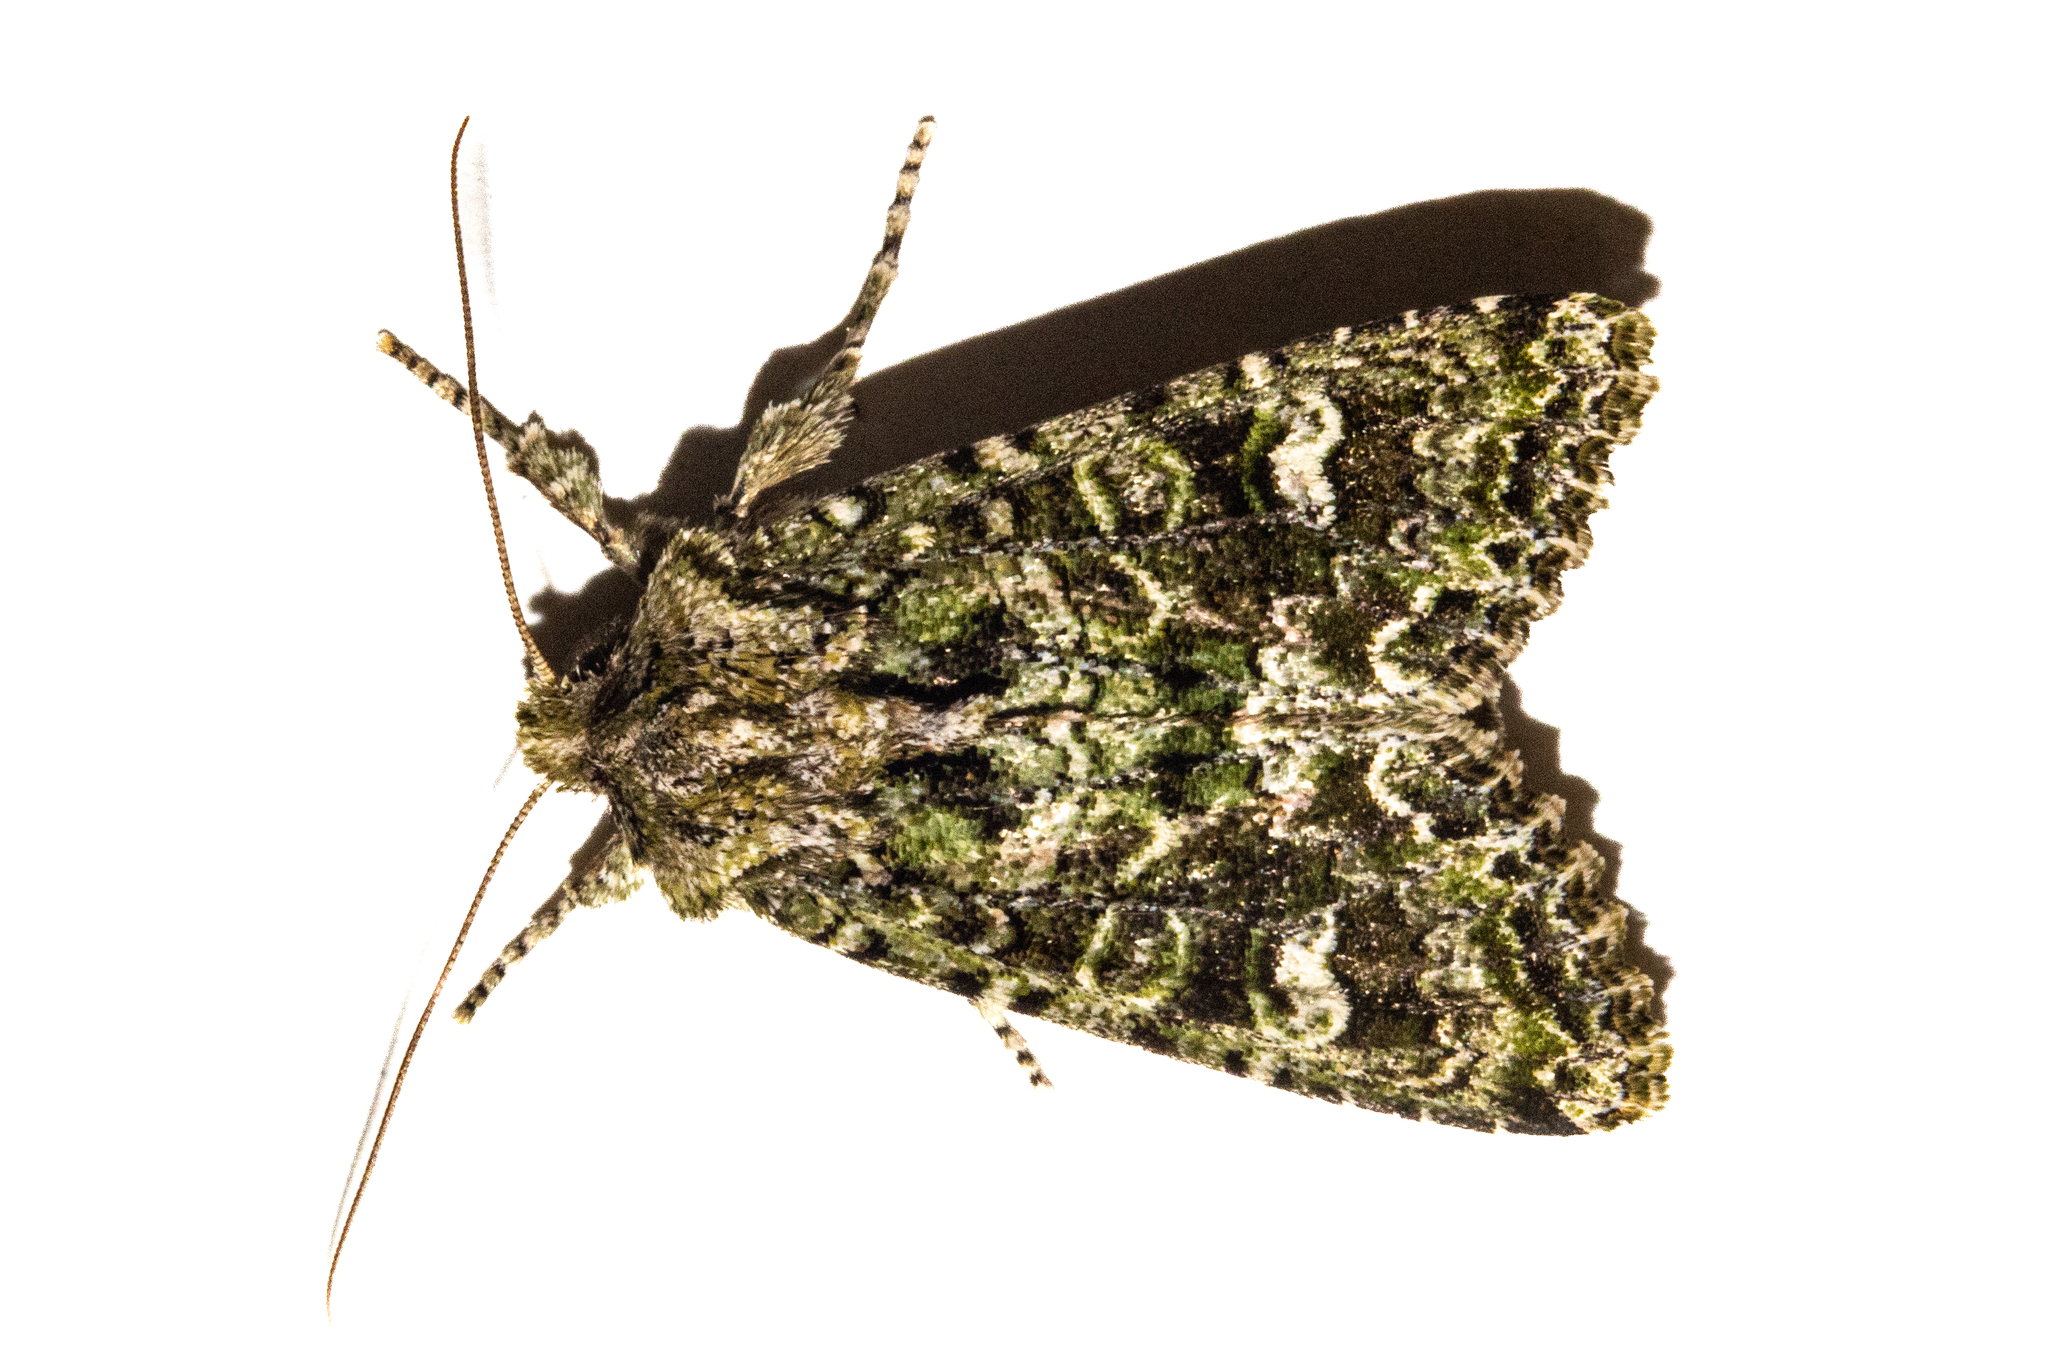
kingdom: Animalia
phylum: Arthropoda
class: Insecta
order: Lepidoptera
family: Noctuidae
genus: Ichneutica
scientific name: Ichneutica
